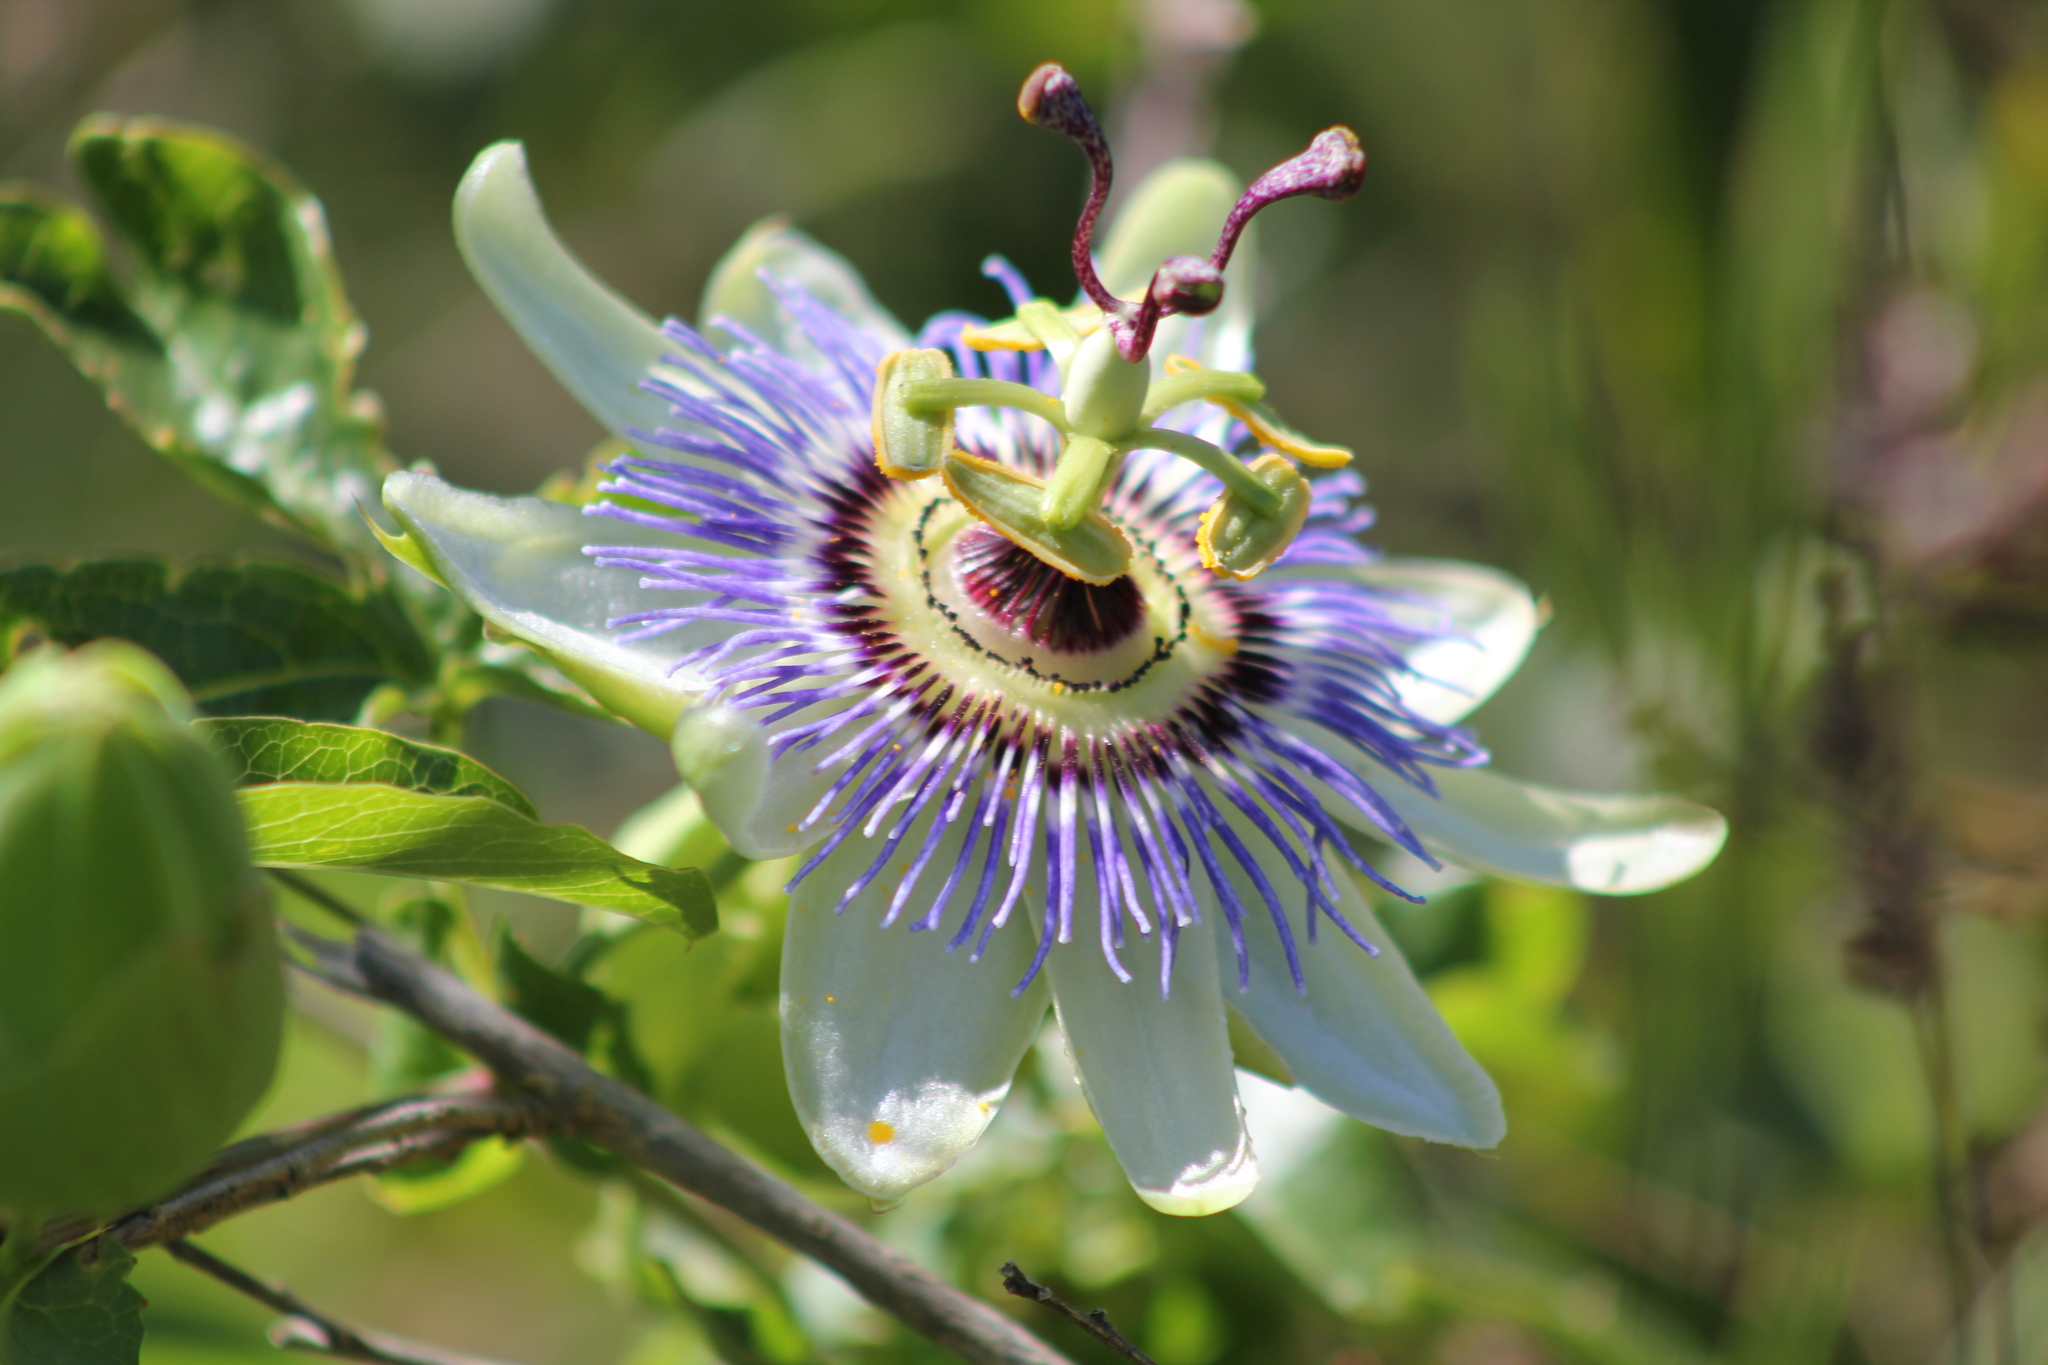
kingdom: Plantae
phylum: Tracheophyta
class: Magnoliopsida
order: Malpighiales
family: Passifloraceae
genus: Passiflora
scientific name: Passiflora caerulea
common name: Blue passionflower
